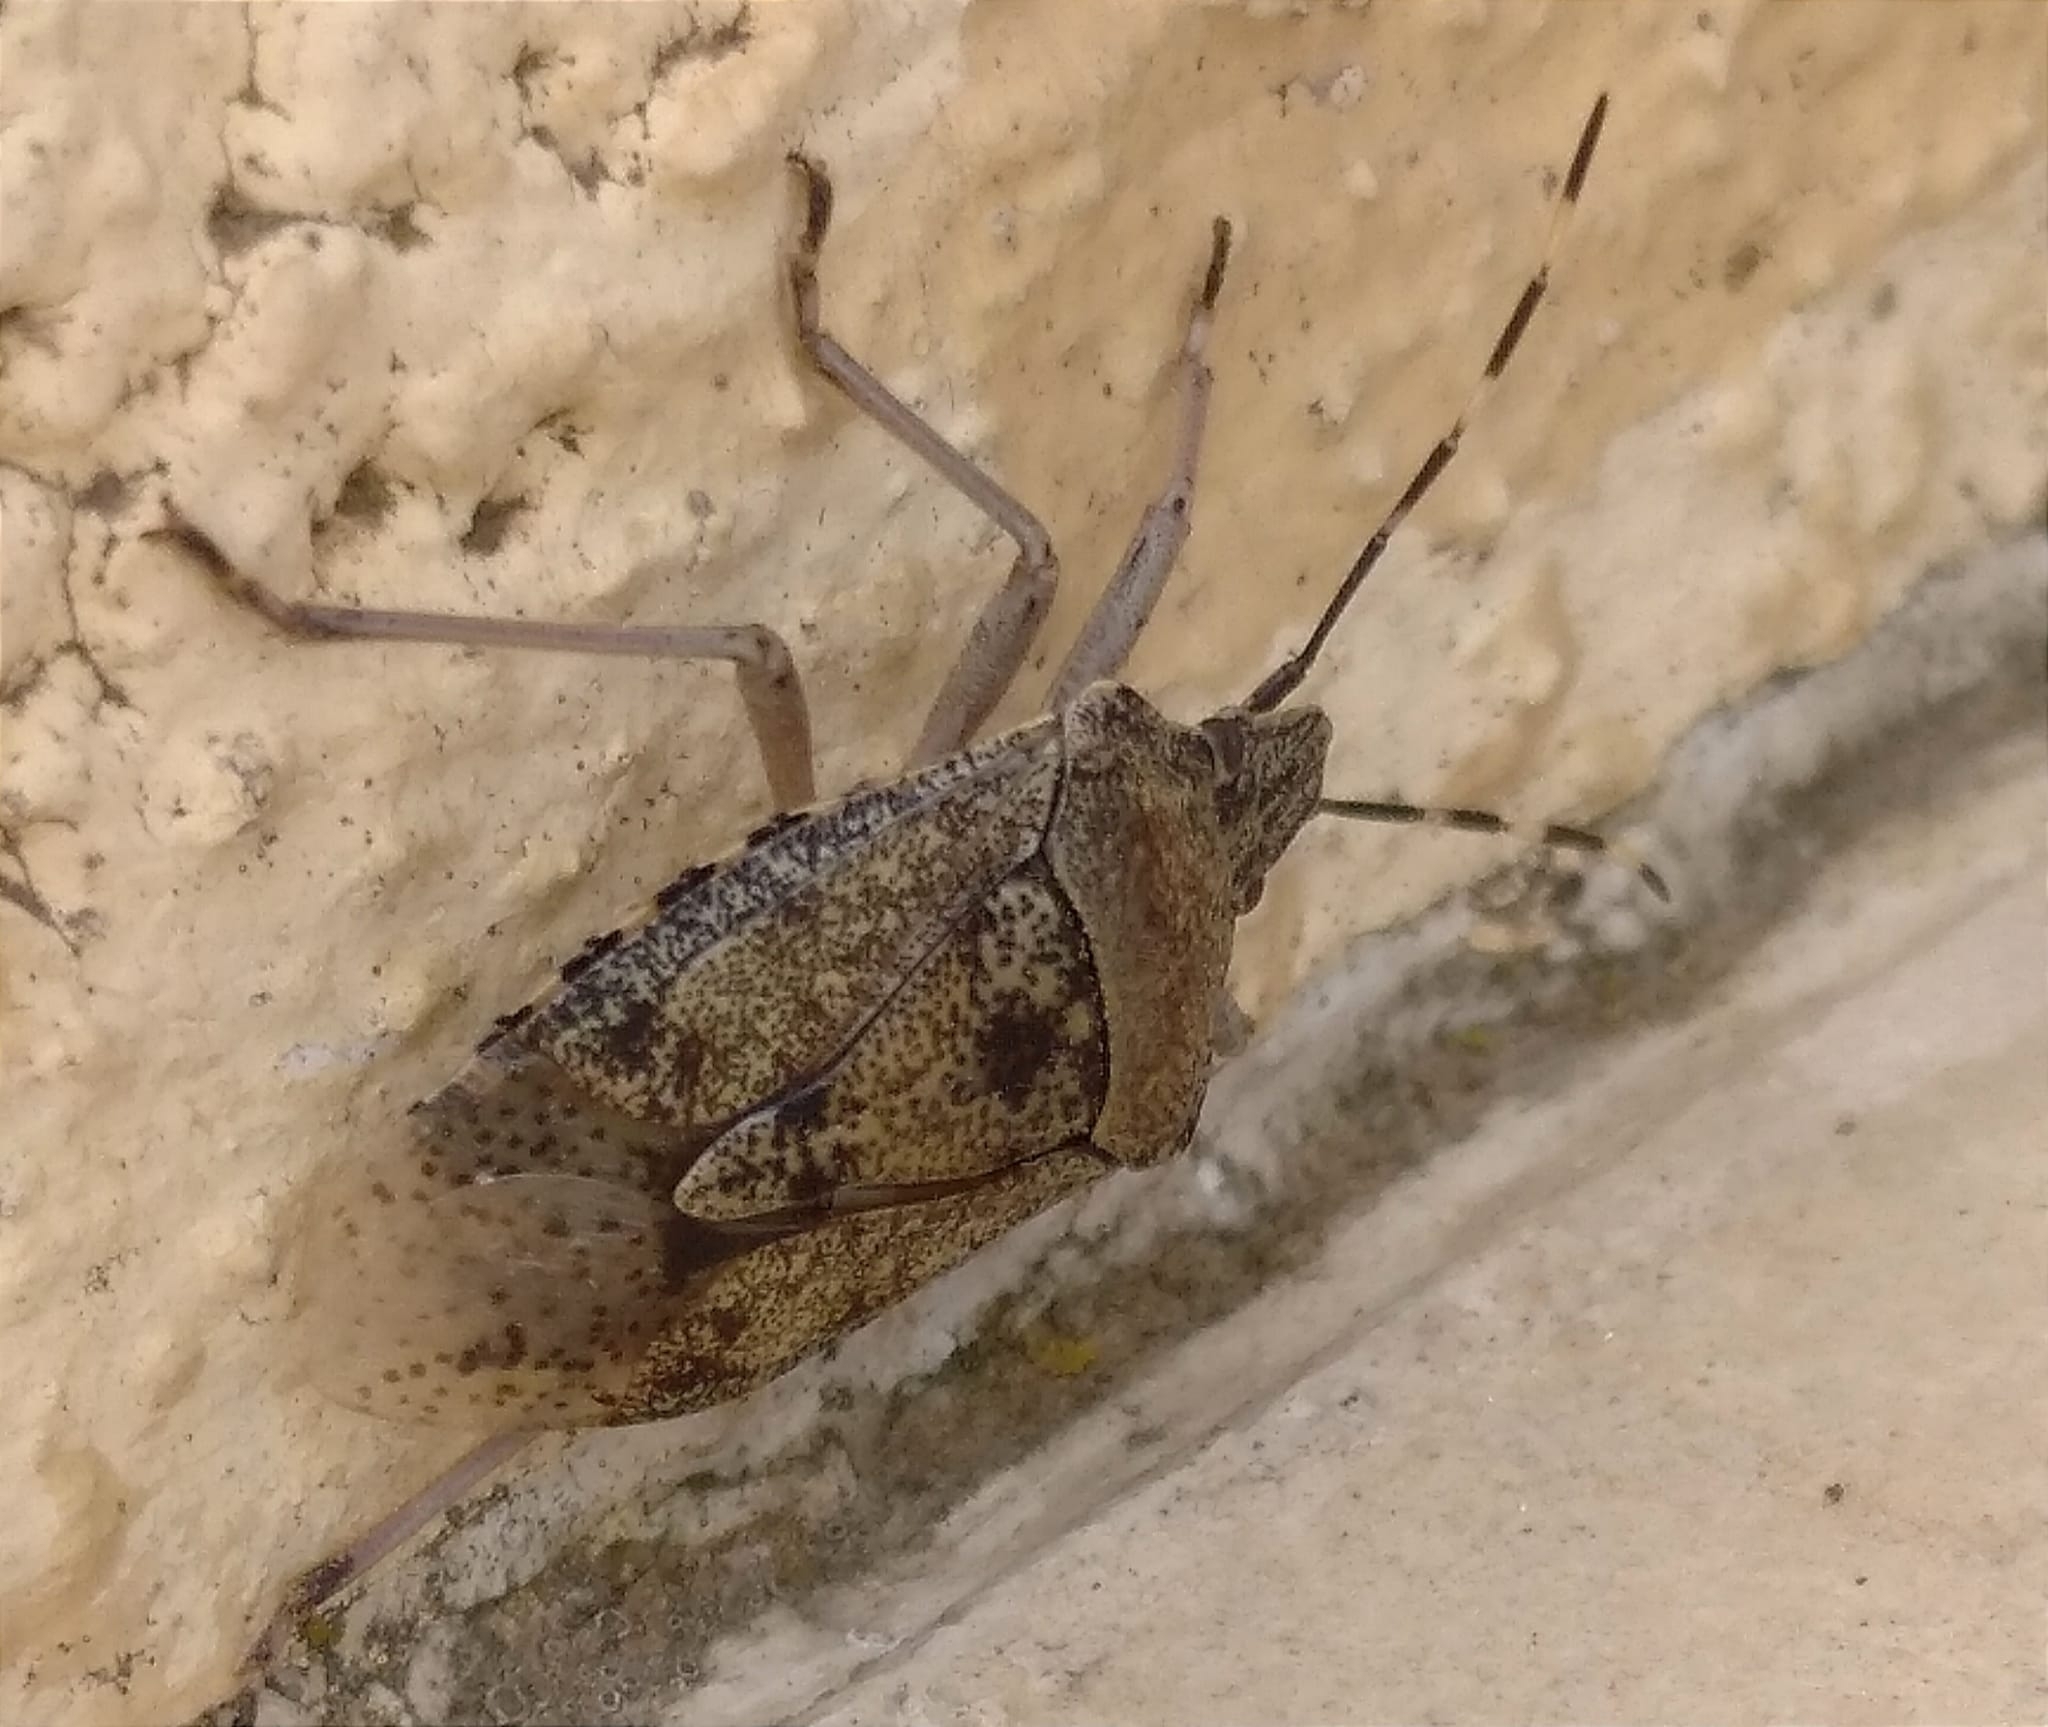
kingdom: Animalia
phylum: Arthropoda
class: Insecta
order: Hemiptera
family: Pentatomidae
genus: Rhaphigaster
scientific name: Rhaphigaster nebulosa
